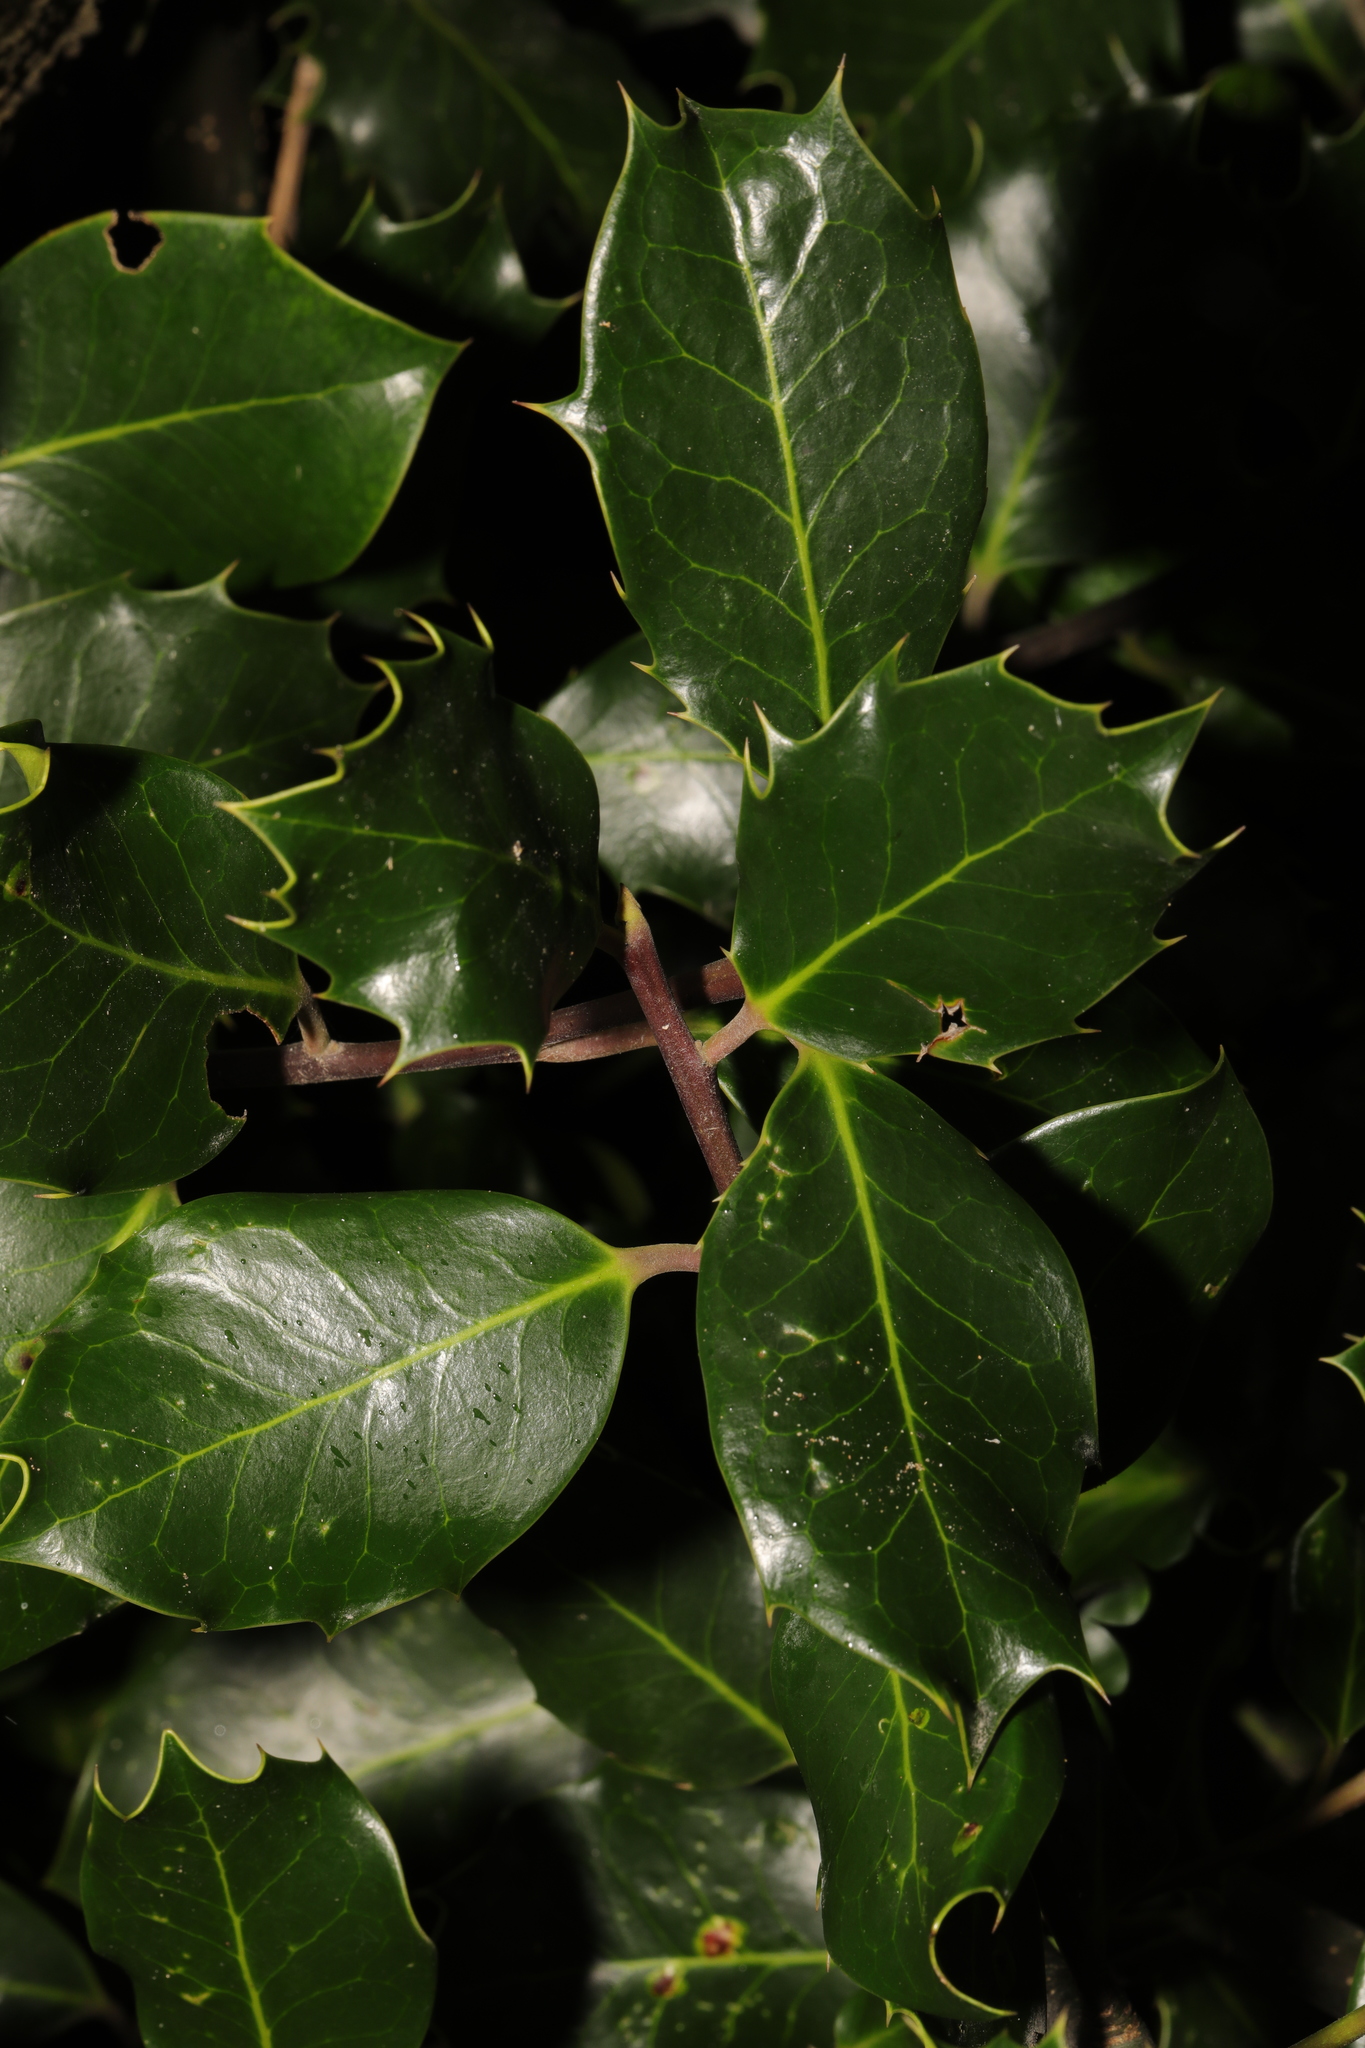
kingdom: Plantae
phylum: Tracheophyta
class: Magnoliopsida
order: Aquifoliales
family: Aquifoliaceae
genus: Ilex
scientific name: Ilex aquifolium
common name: English holly
